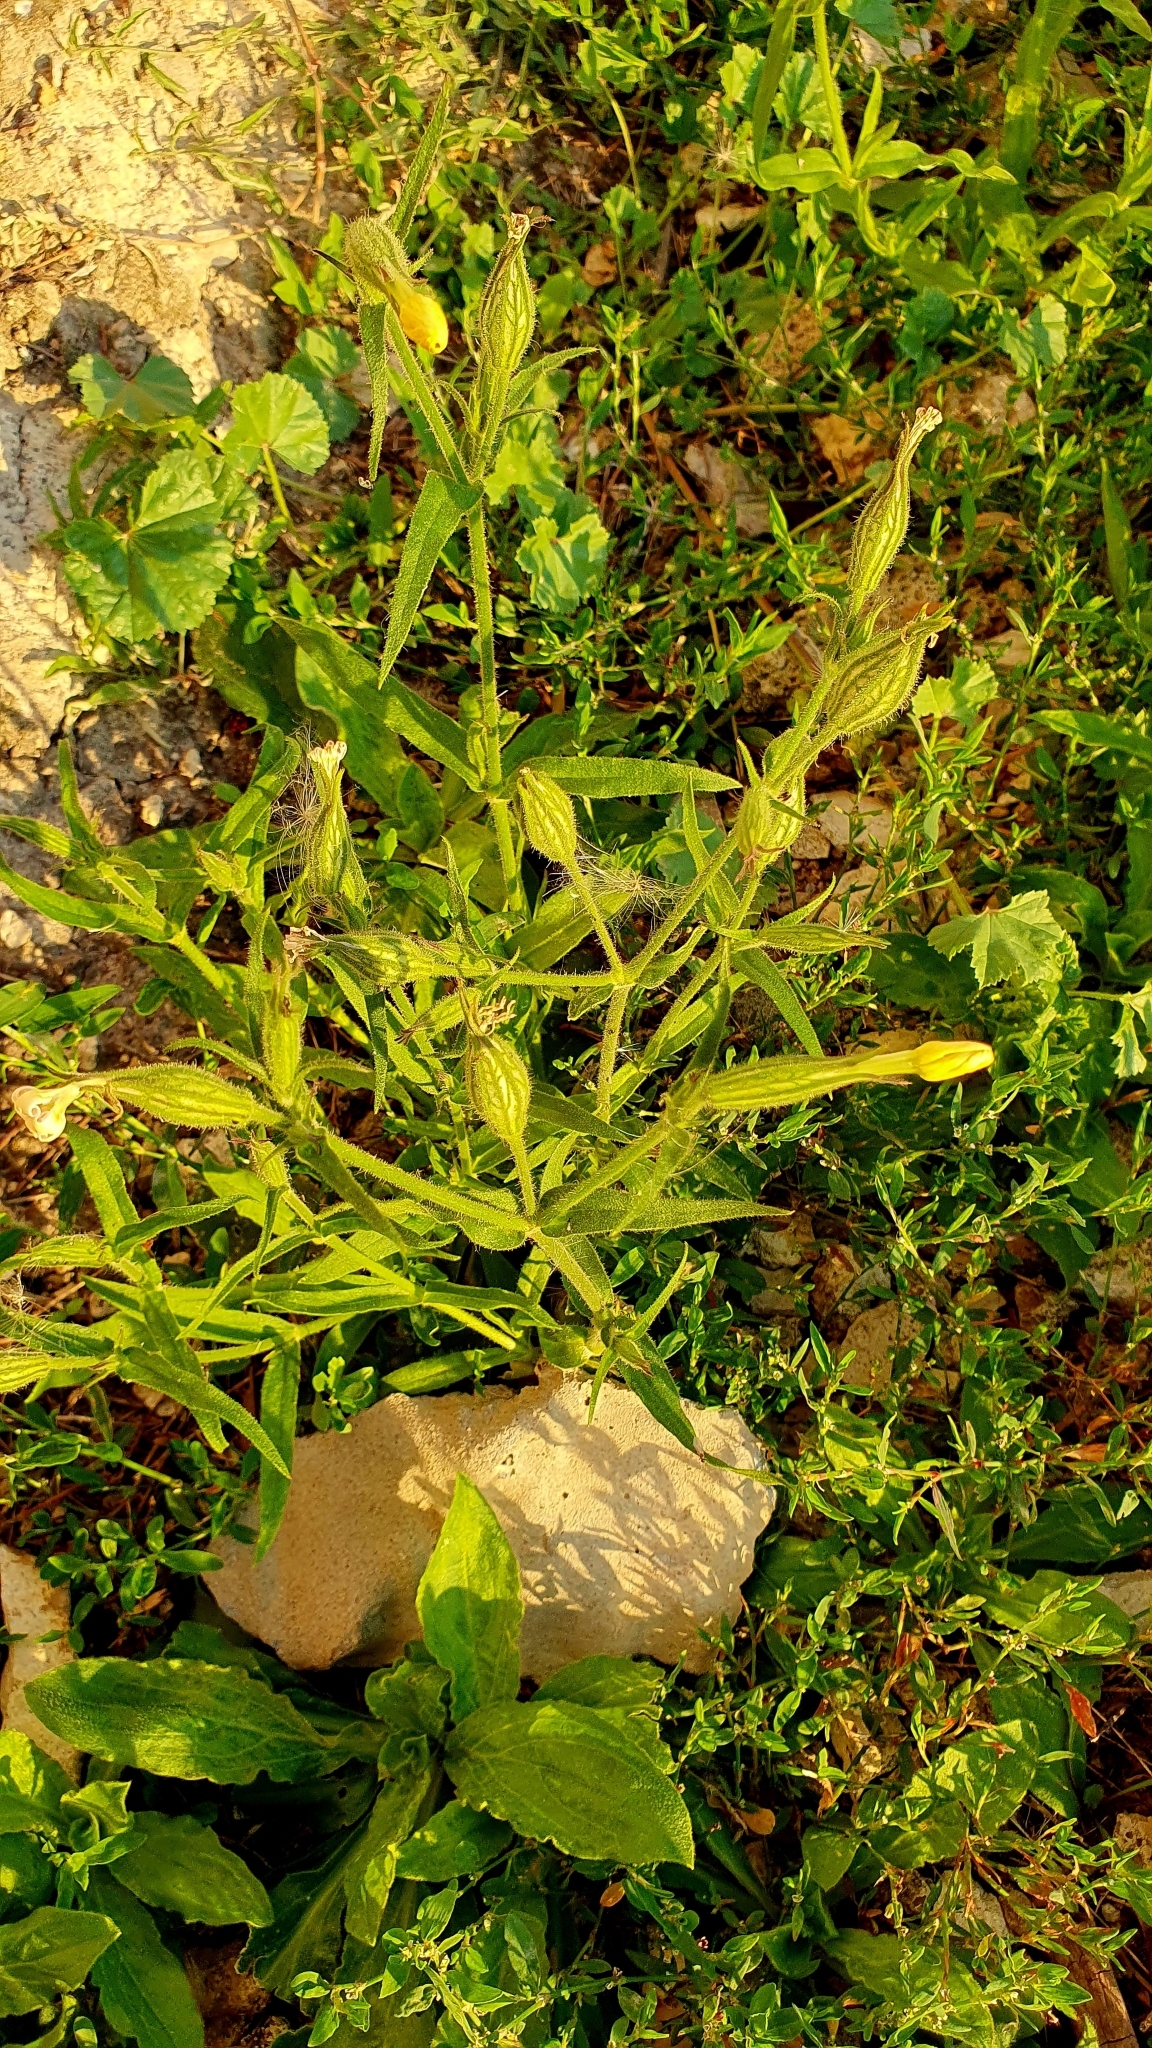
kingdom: Plantae
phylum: Tracheophyta
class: Magnoliopsida
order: Caryophyllales
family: Caryophyllaceae
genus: Silene
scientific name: Silene noctiflora
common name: Night-flowering catchfly
